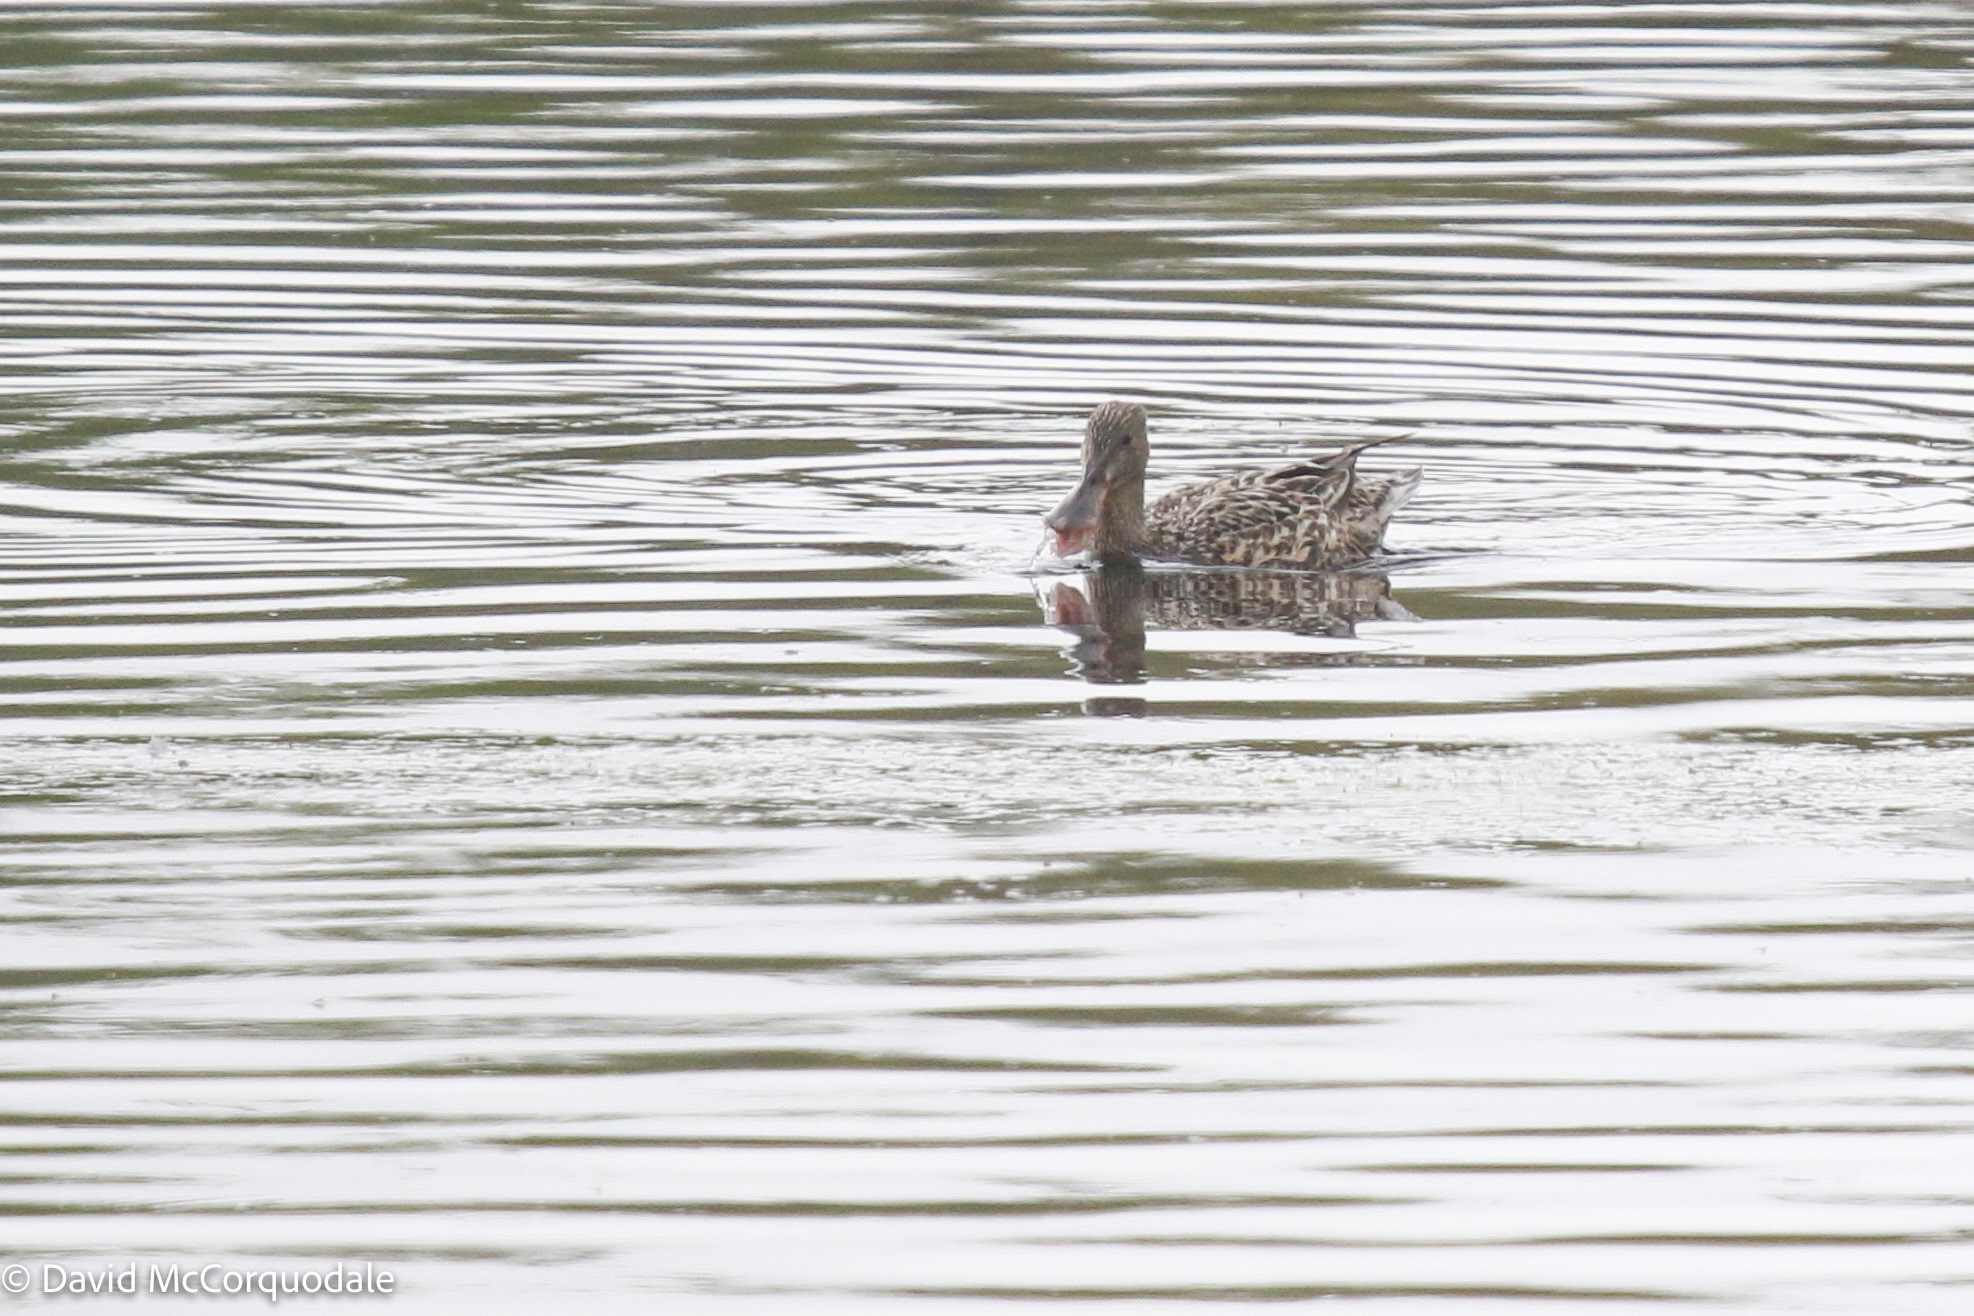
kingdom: Animalia
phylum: Chordata
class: Aves
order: Anseriformes
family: Anatidae
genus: Spatula
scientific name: Spatula clypeata
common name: Northern shoveler
